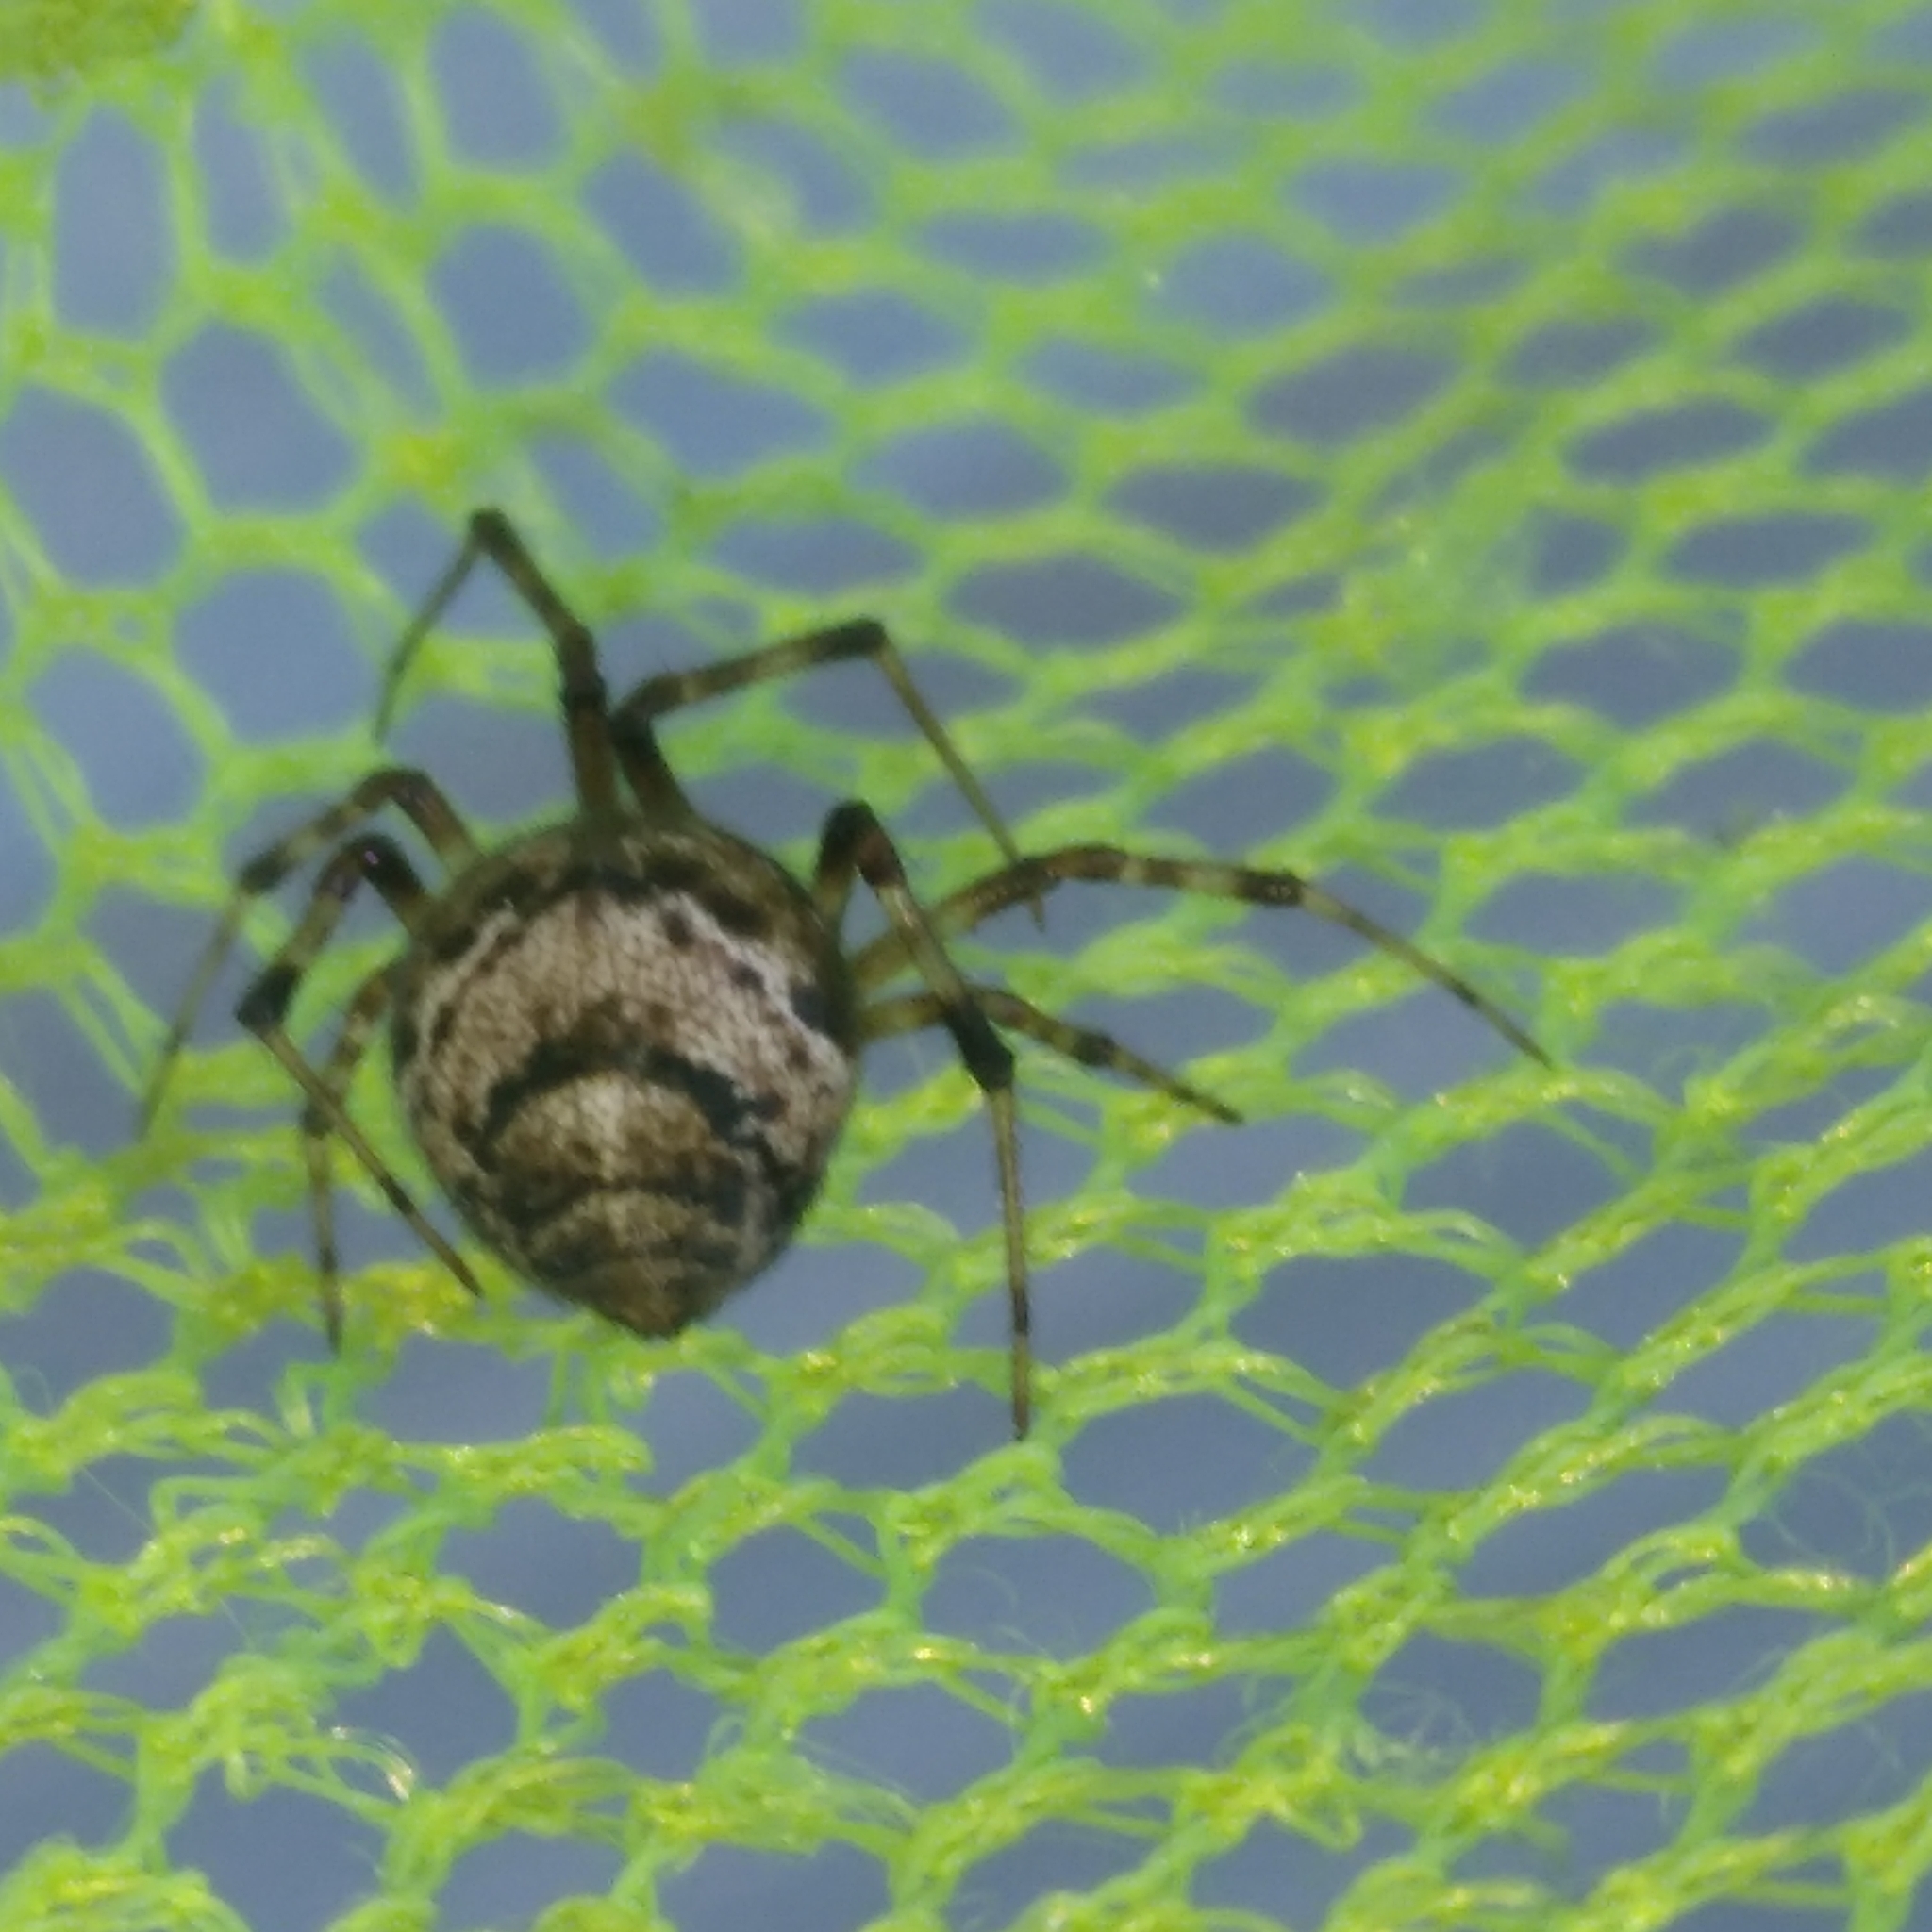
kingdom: Animalia
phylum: Arthropoda
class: Arachnida
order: Araneae
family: Theridiidae
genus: Cryptachaea
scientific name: Cryptachaea riparia
